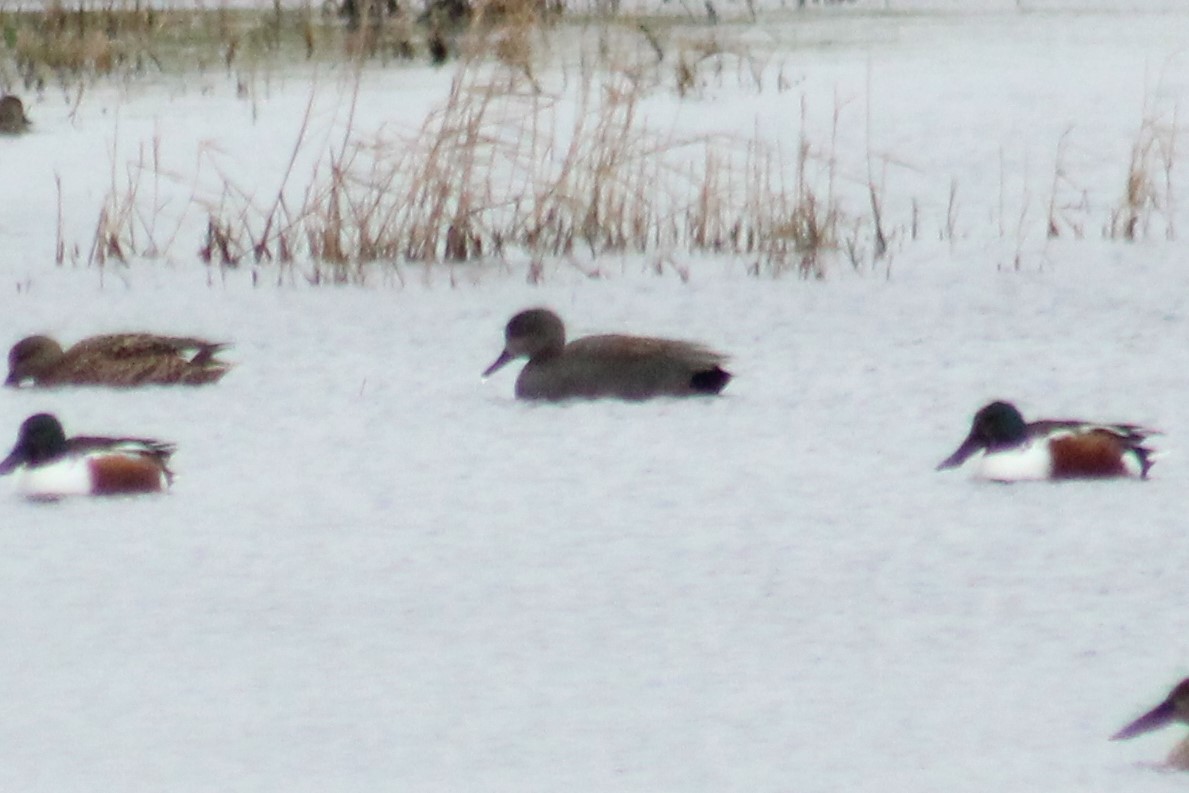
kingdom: Animalia
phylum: Chordata
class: Aves
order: Anseriformes
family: Anatidae
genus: Mareca
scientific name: Mareca strepera
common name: Gadwall
